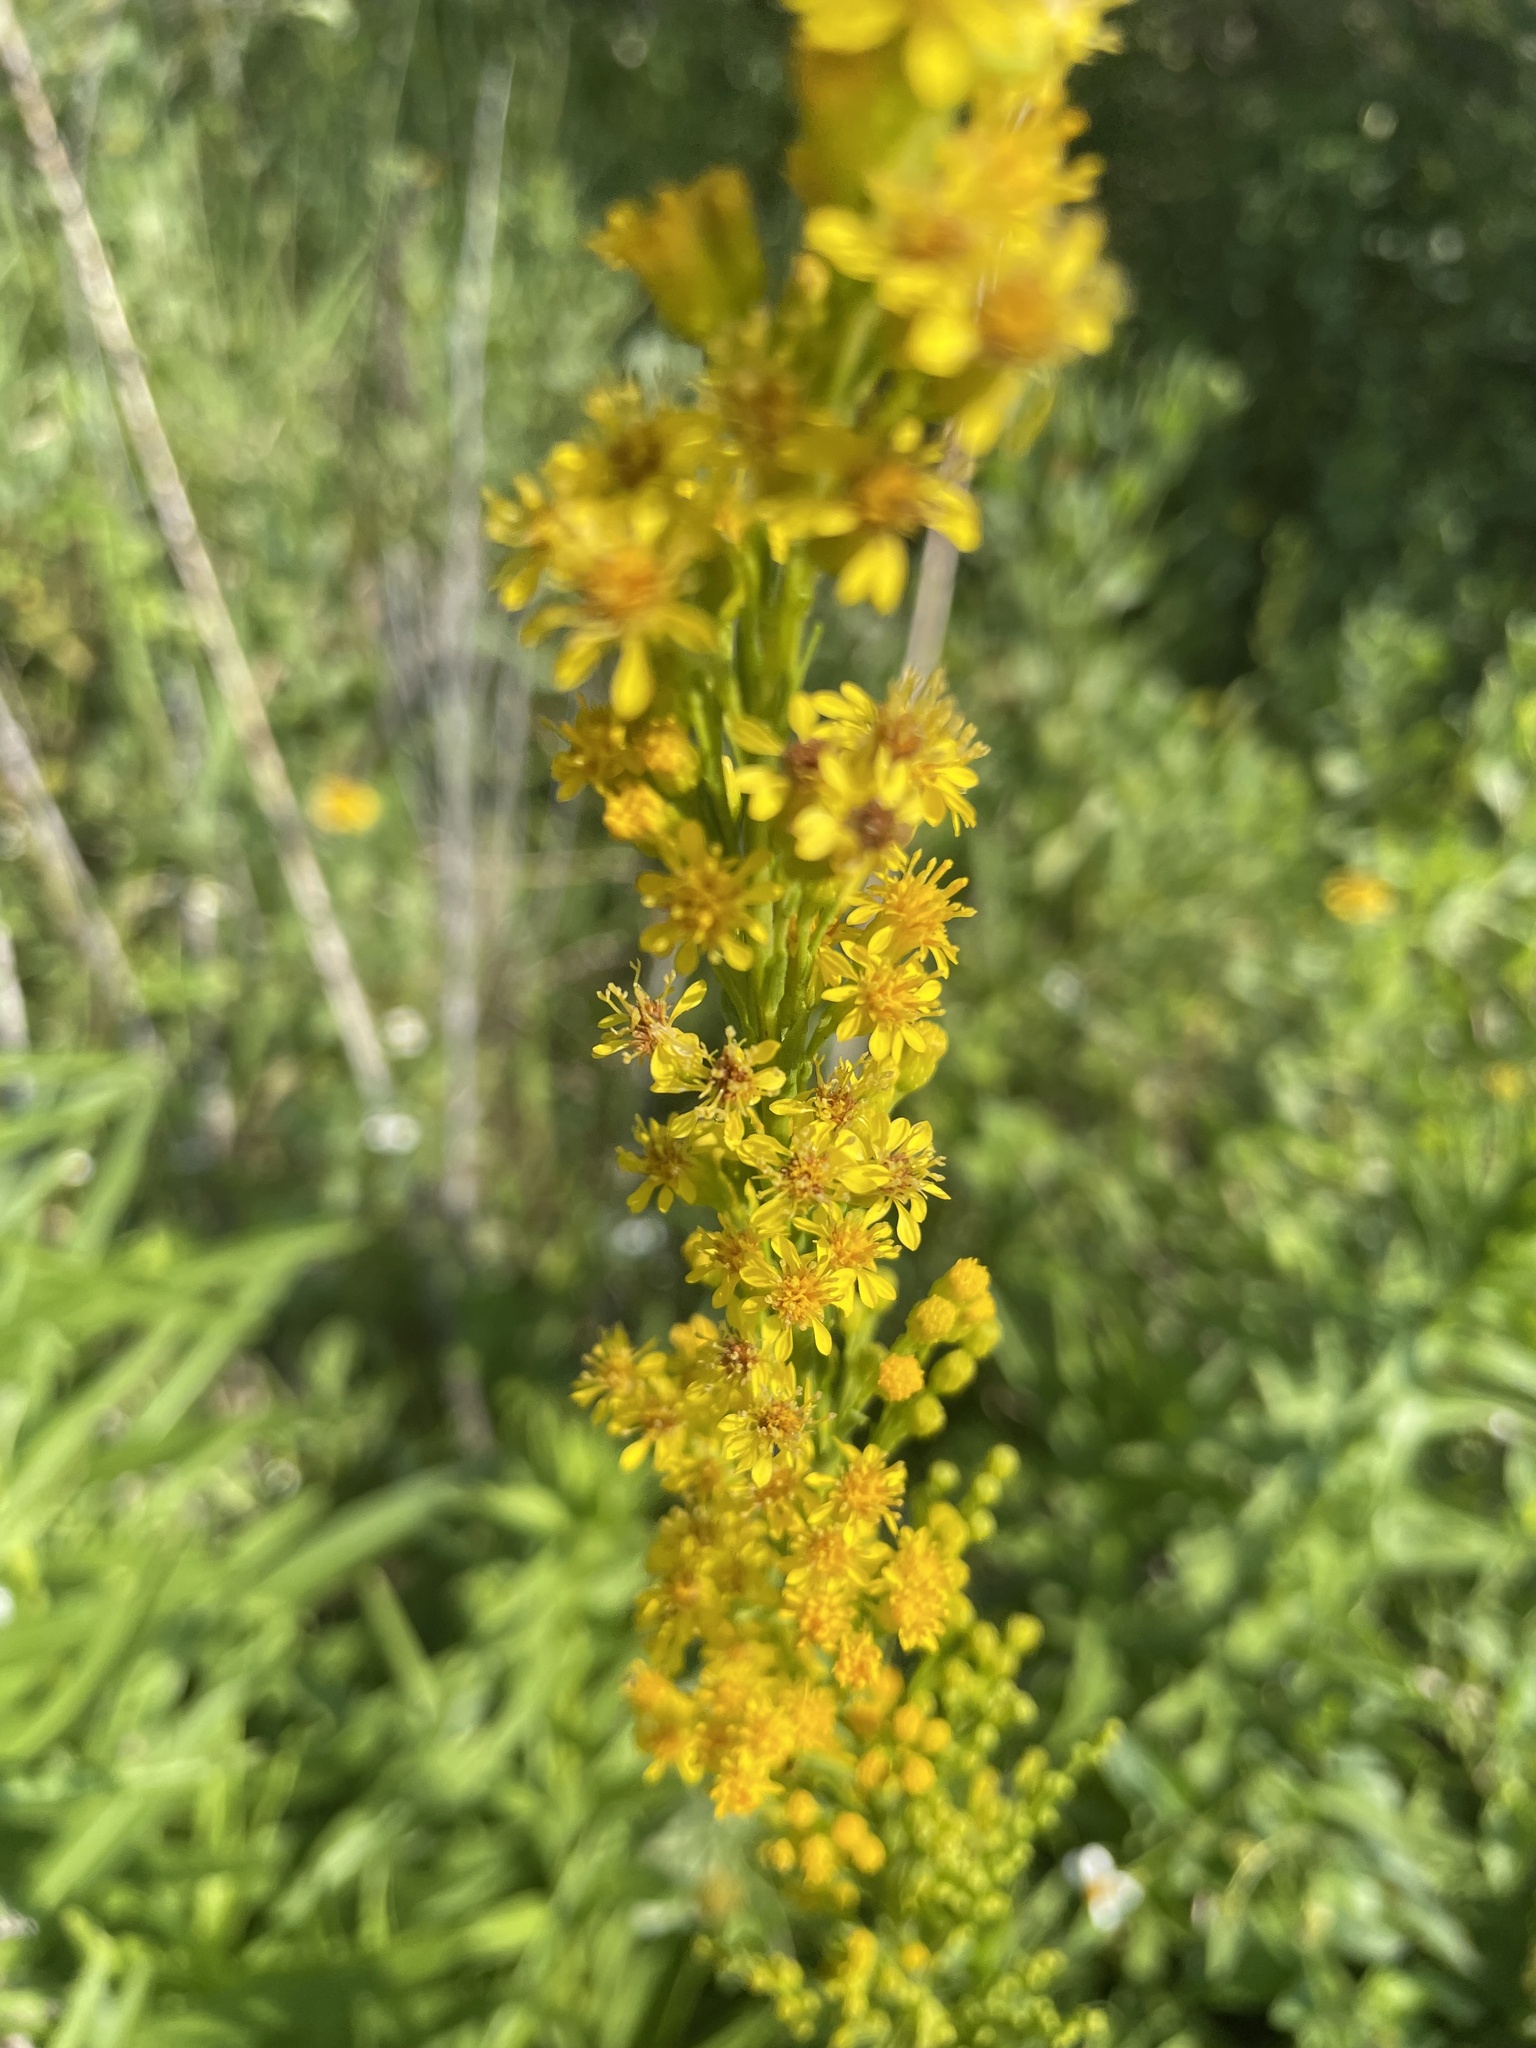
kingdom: Plantae
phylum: Tracheophyta
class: Magnoliopsida
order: Asterales
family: Asteraceae
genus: Solidago
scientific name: Solidago mexicana
